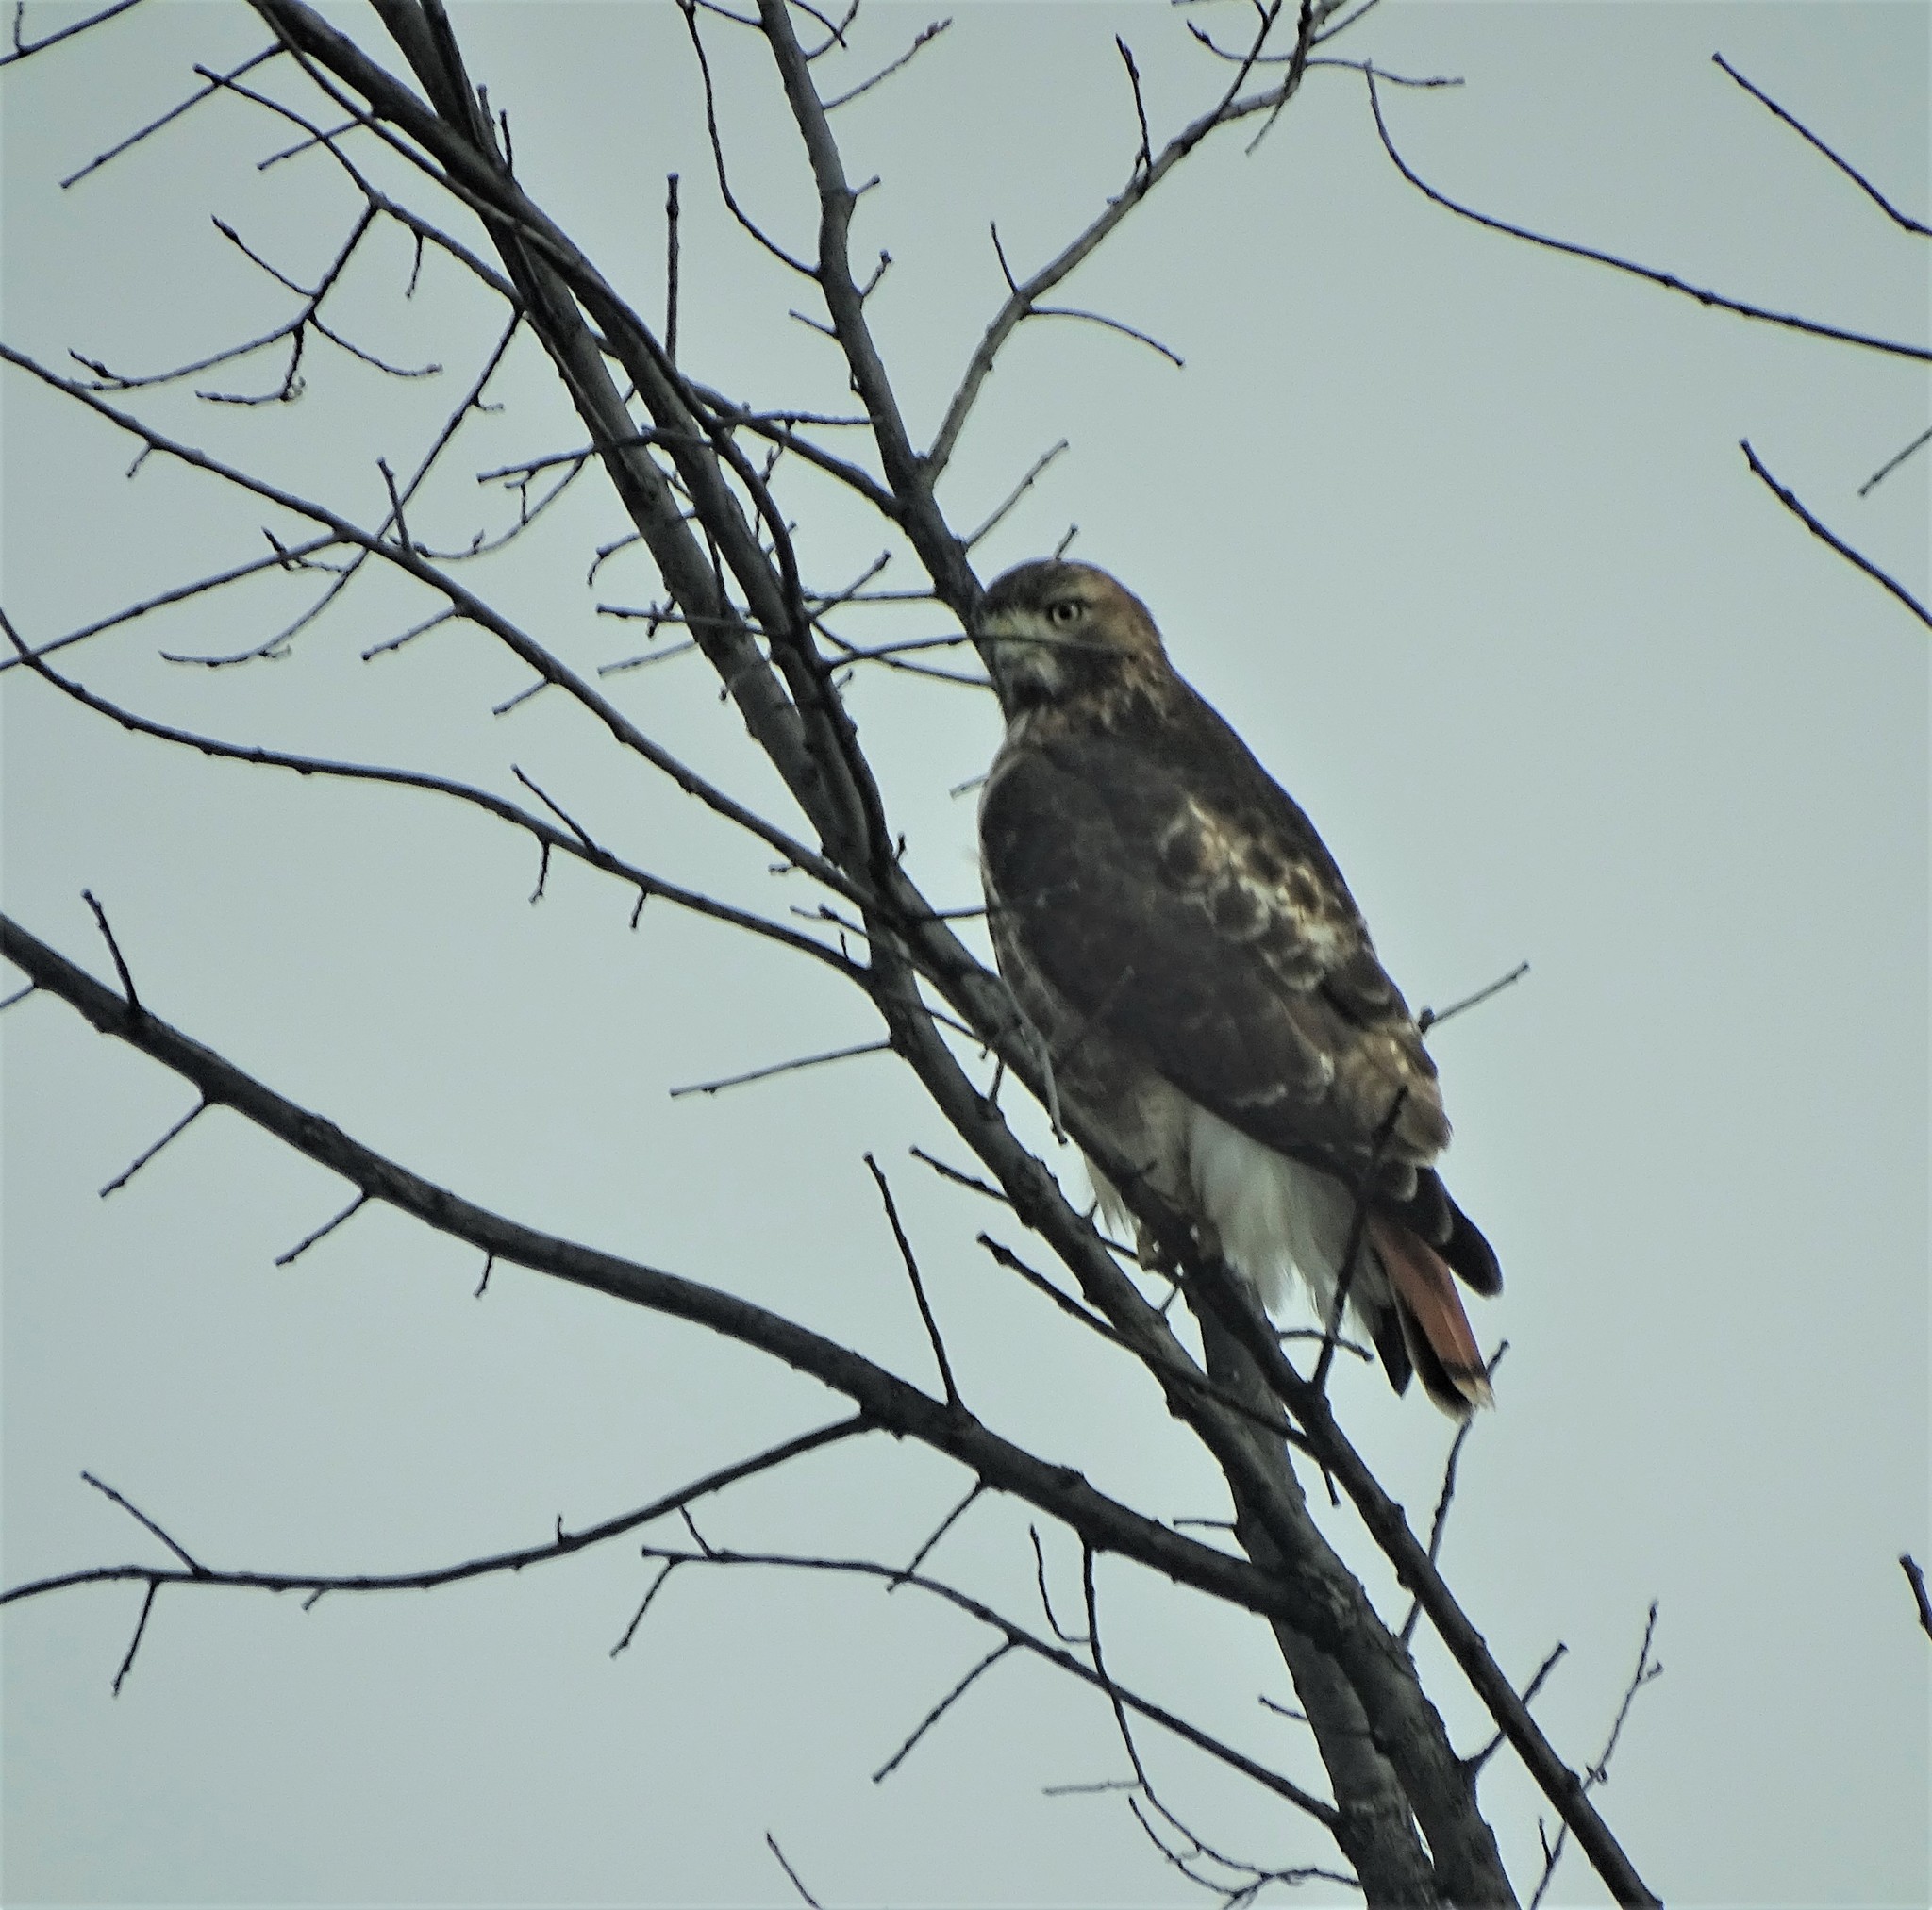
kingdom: Animalia
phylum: Chordata
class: Aves
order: Accipitriformes
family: Accipitridae
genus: Buteo
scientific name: Buteo jamaicensis
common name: Red-tailed hawk
